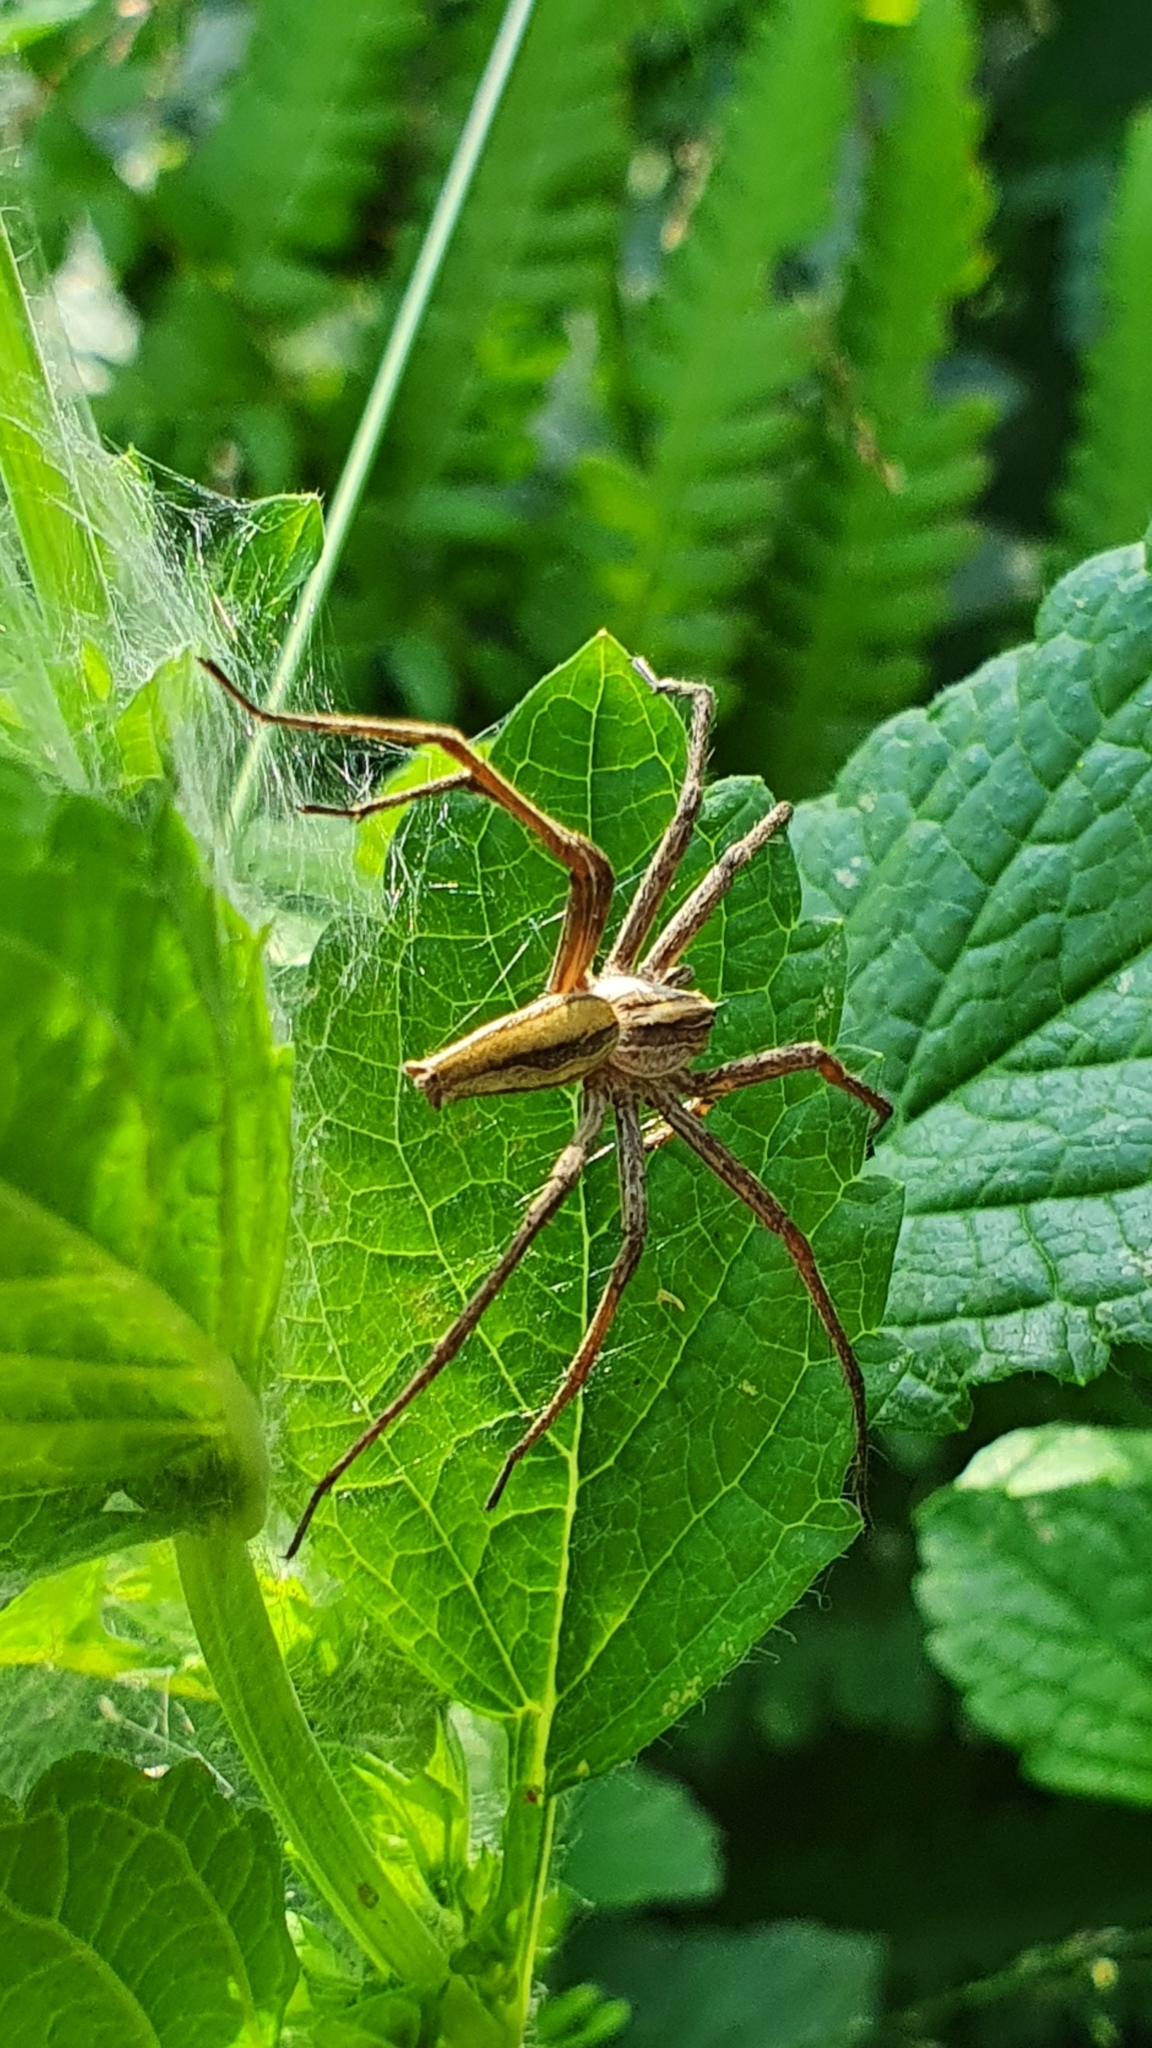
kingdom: Animalia
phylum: Arthropoda
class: Arachnida
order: Araneae
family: Pisauridae
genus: Pisaura
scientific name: Pisaura mirabilis
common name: Tent spider
